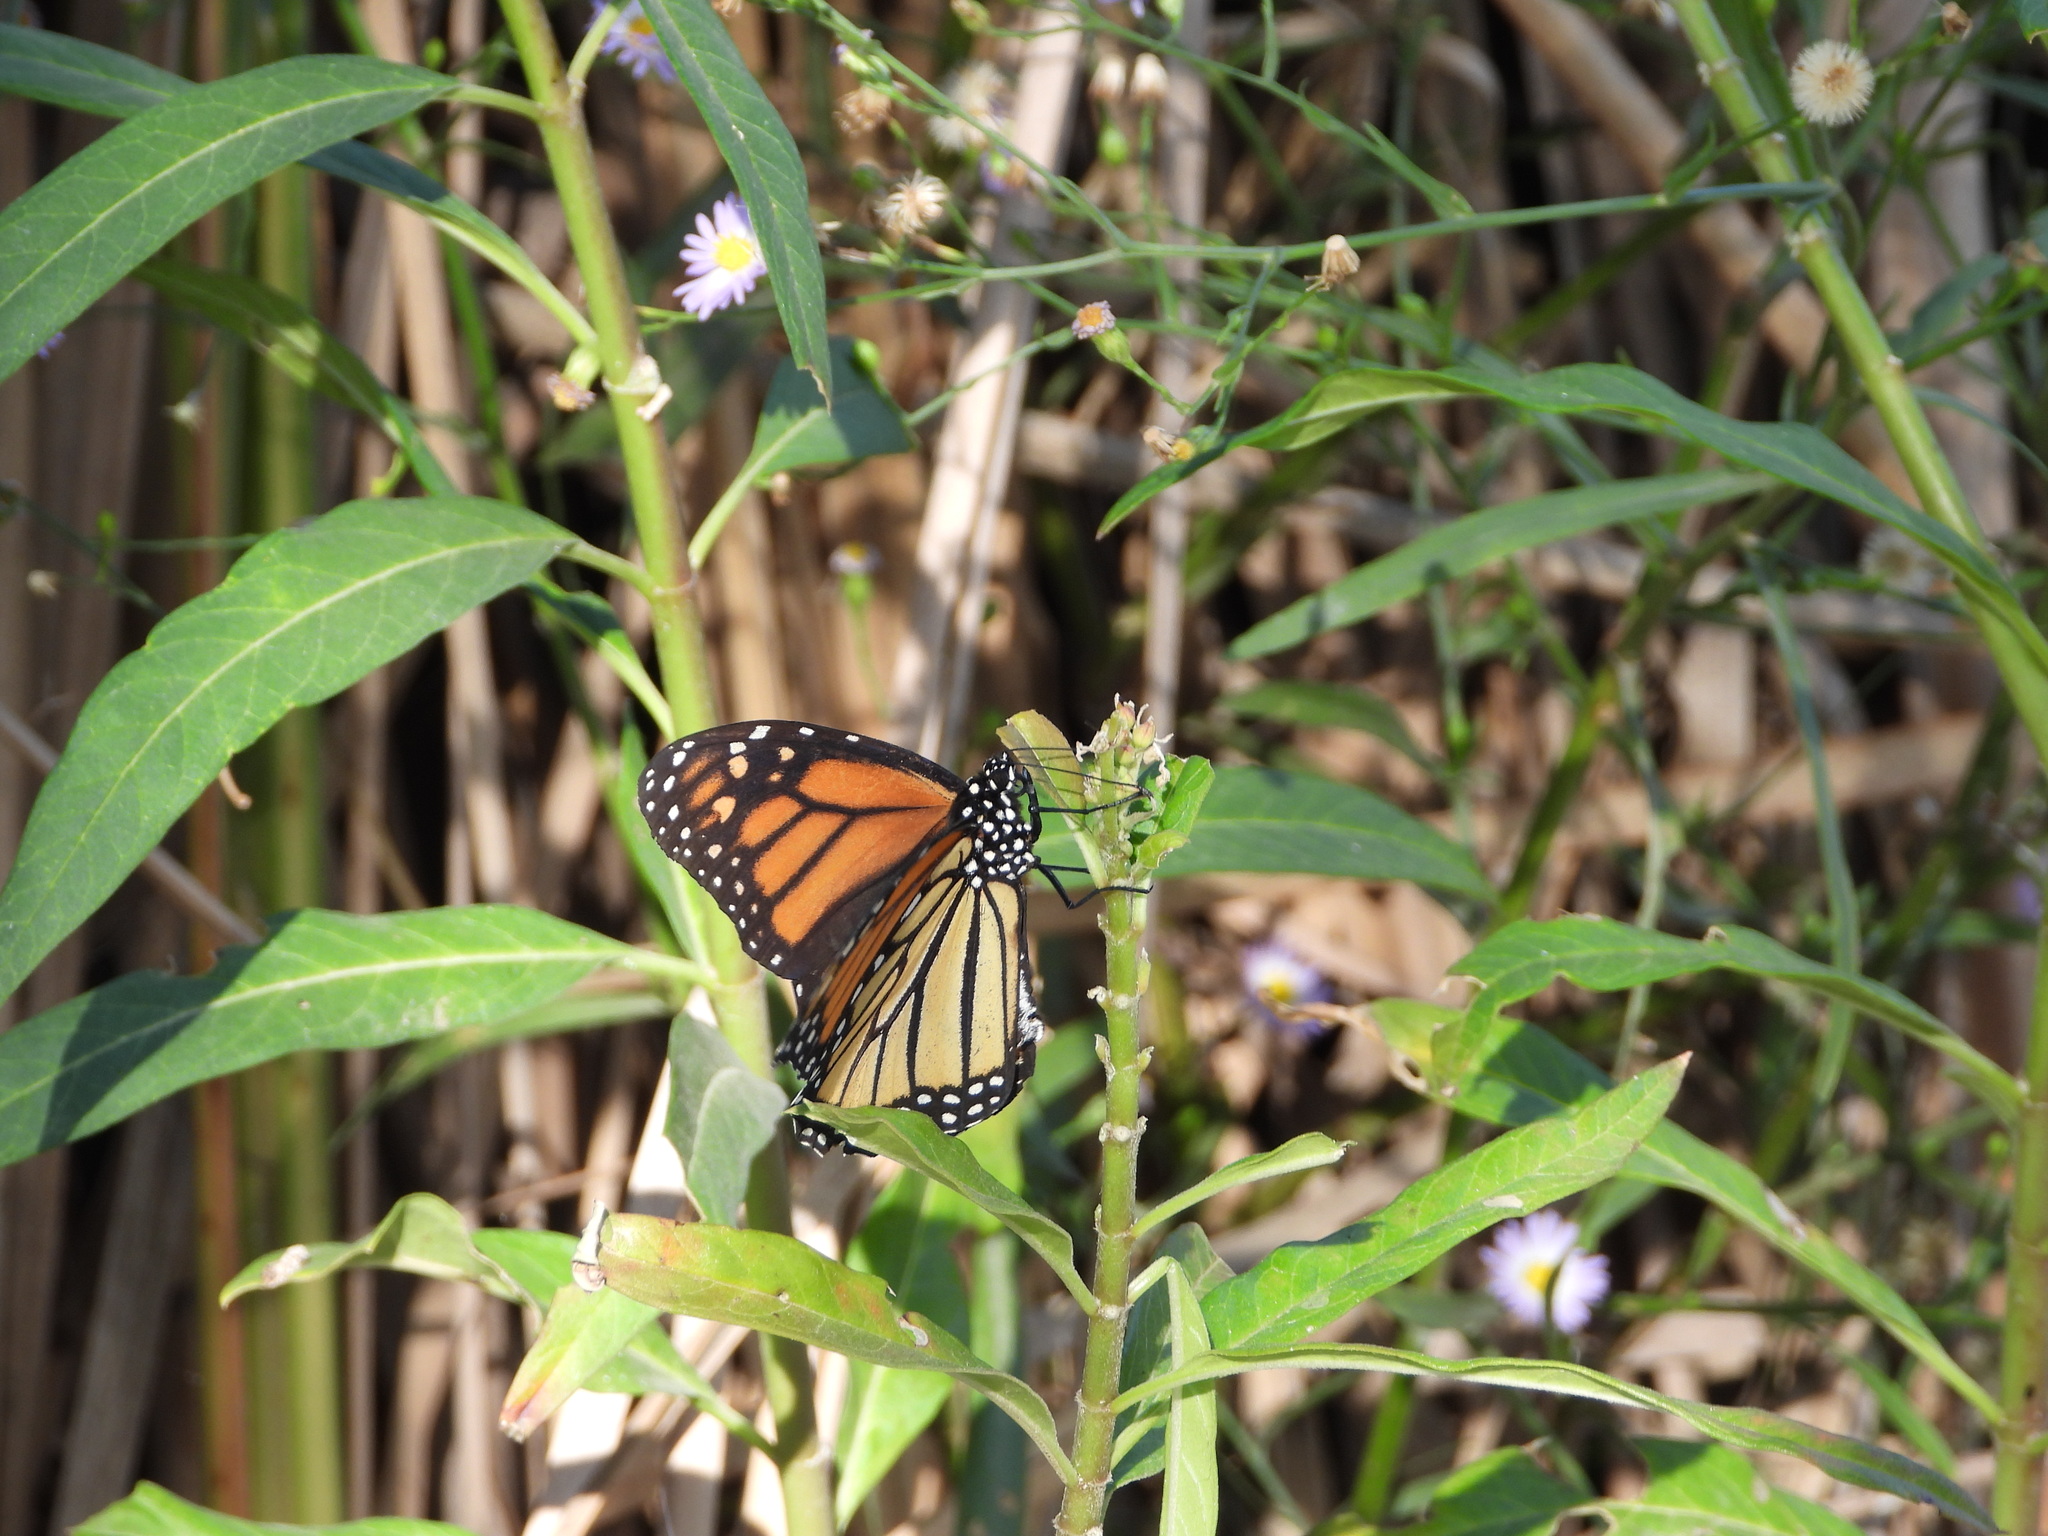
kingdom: Animalia
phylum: Arthropoda
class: Insecta
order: Lepidoptera
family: Nymphalidae
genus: Danaus
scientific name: Danaus plexippus
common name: Monarch
